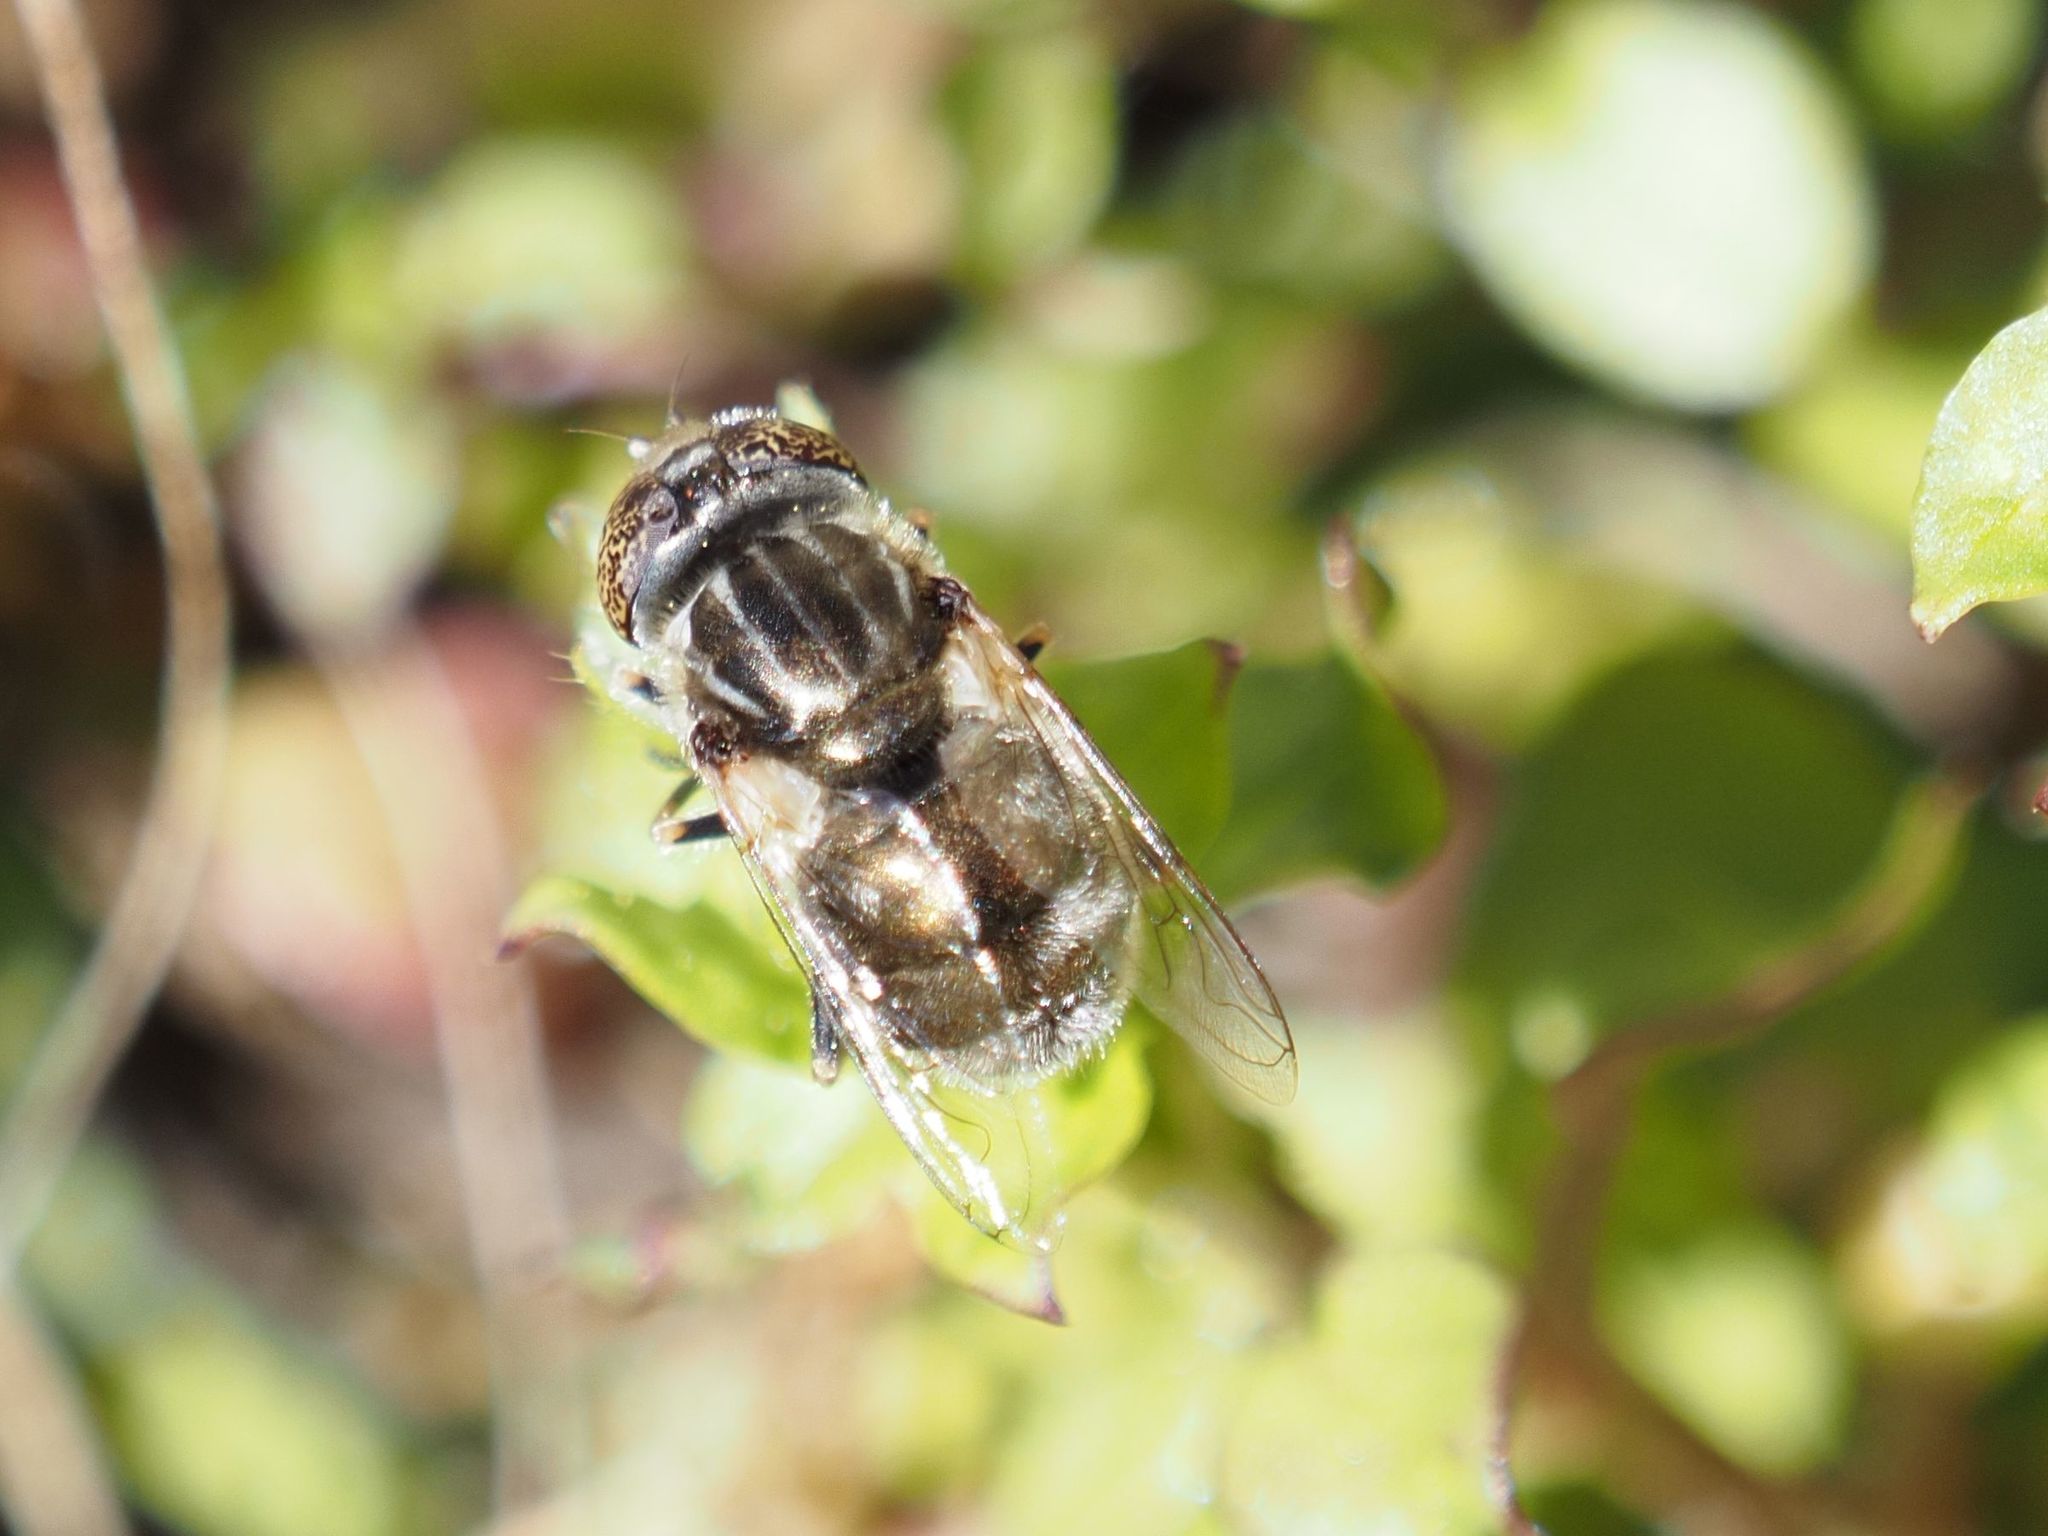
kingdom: Animalia
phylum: Arthropoda
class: Insecta
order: Diptera
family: Syrphidae
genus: Eristalinus
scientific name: Eristalinus aeneus
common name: Syrphid fly
